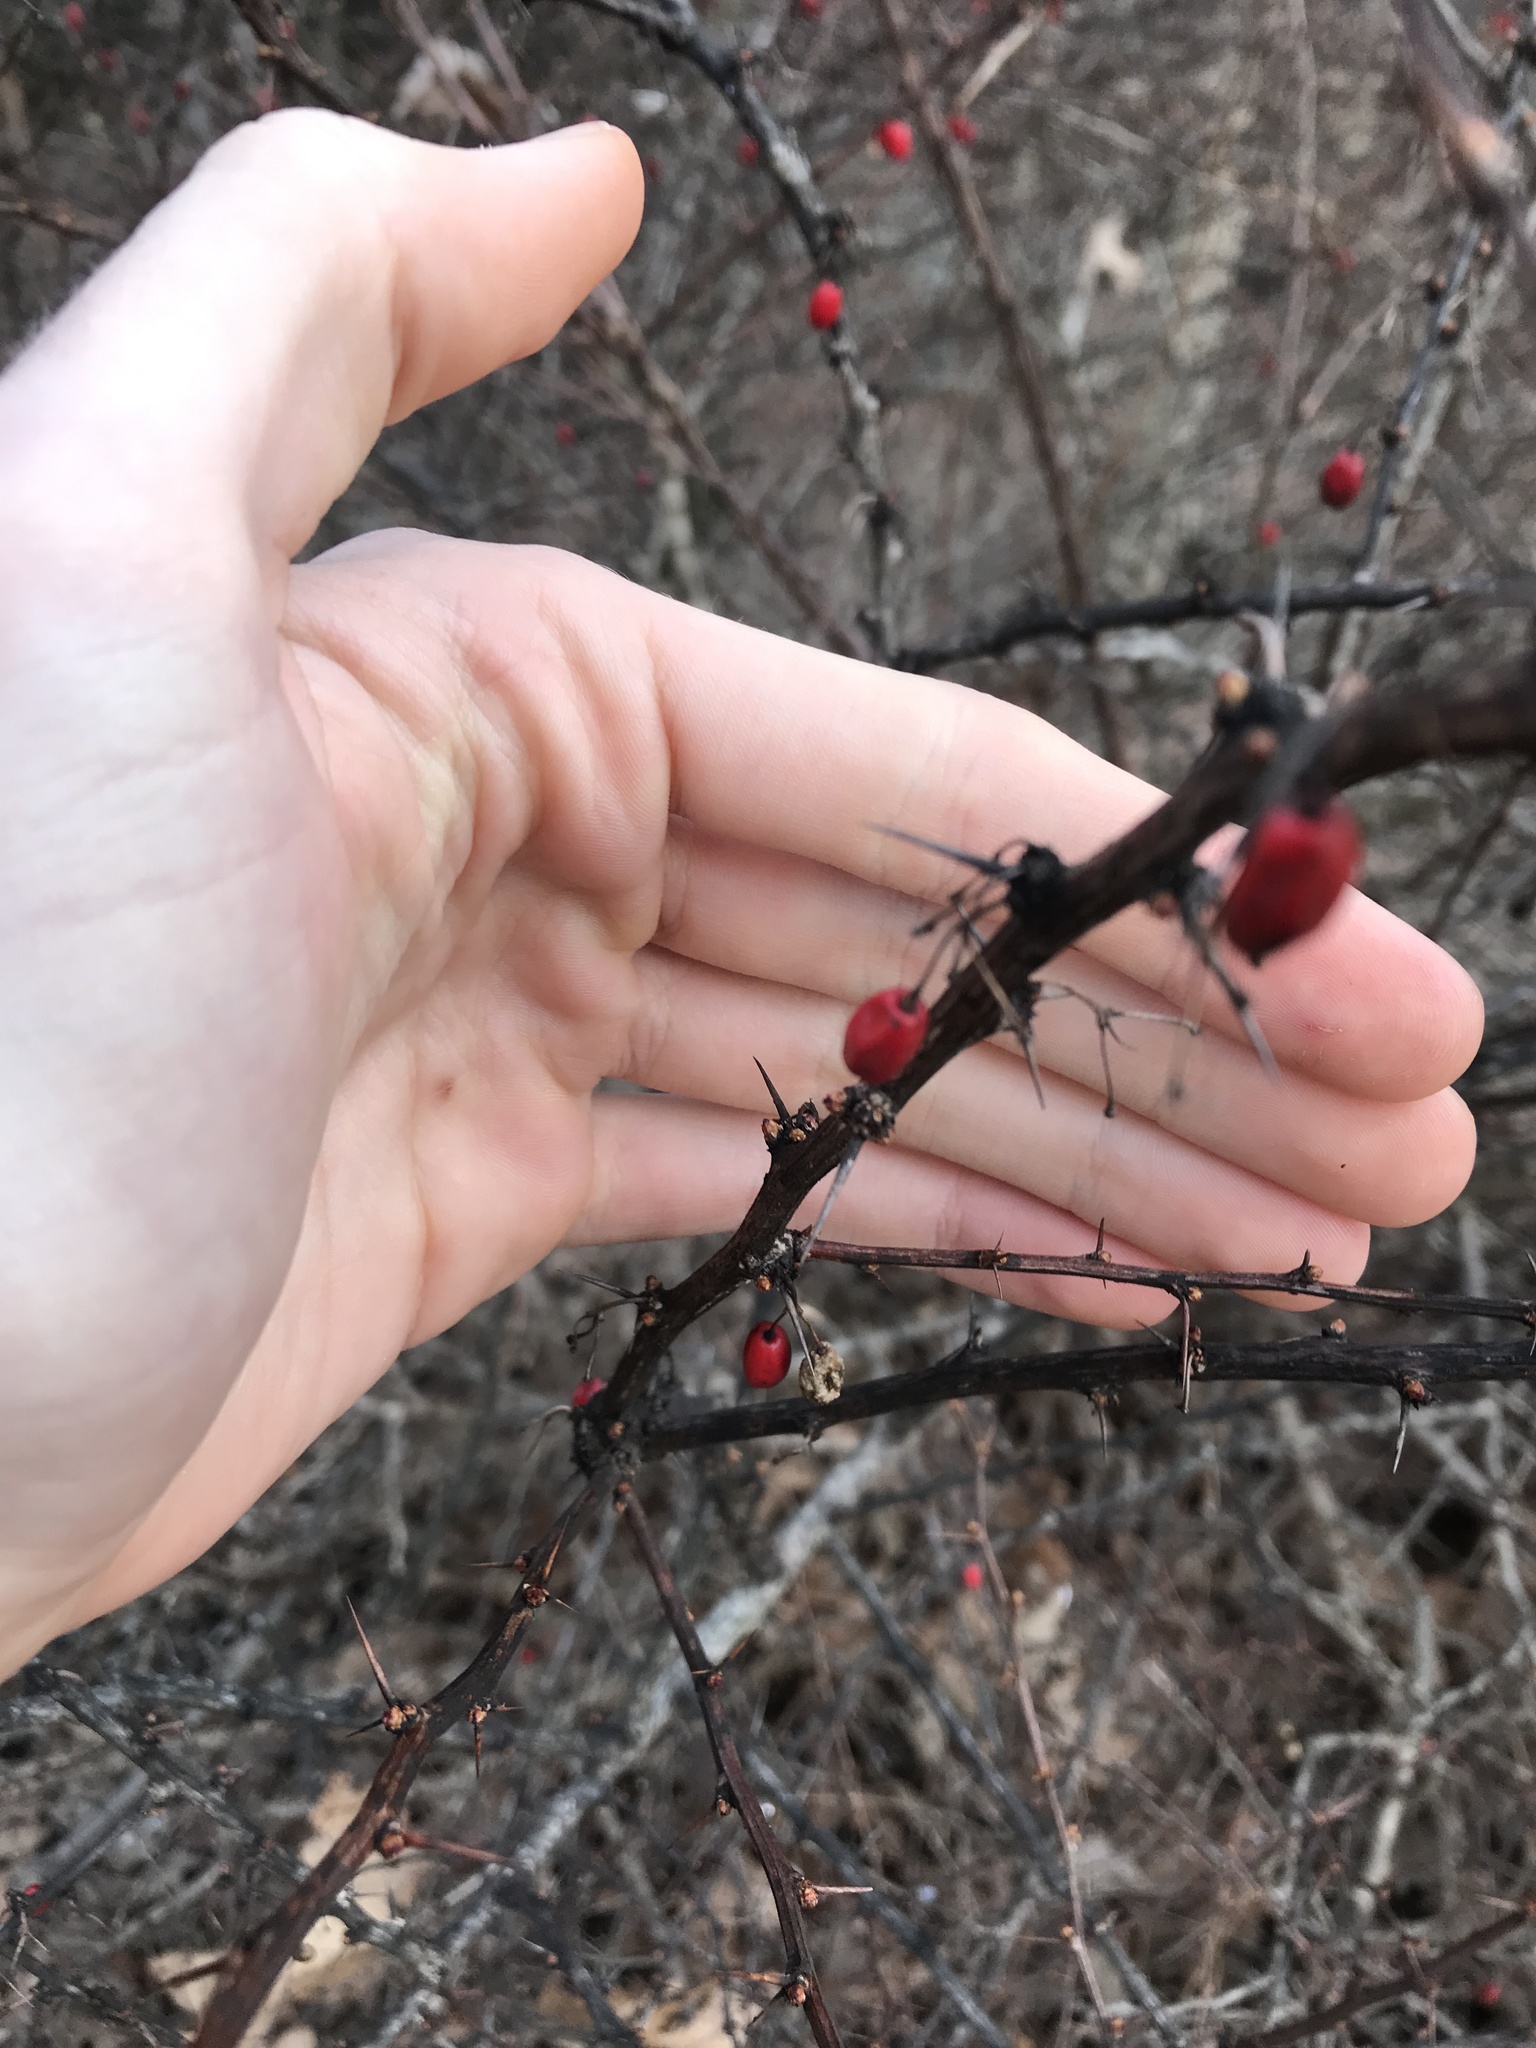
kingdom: Plantae
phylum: Tracheophyta
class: Magnoliopsida
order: Ranunculales
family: Berberidaceae
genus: Berberis
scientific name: Berberis thunbergii
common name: Japanese barberry
